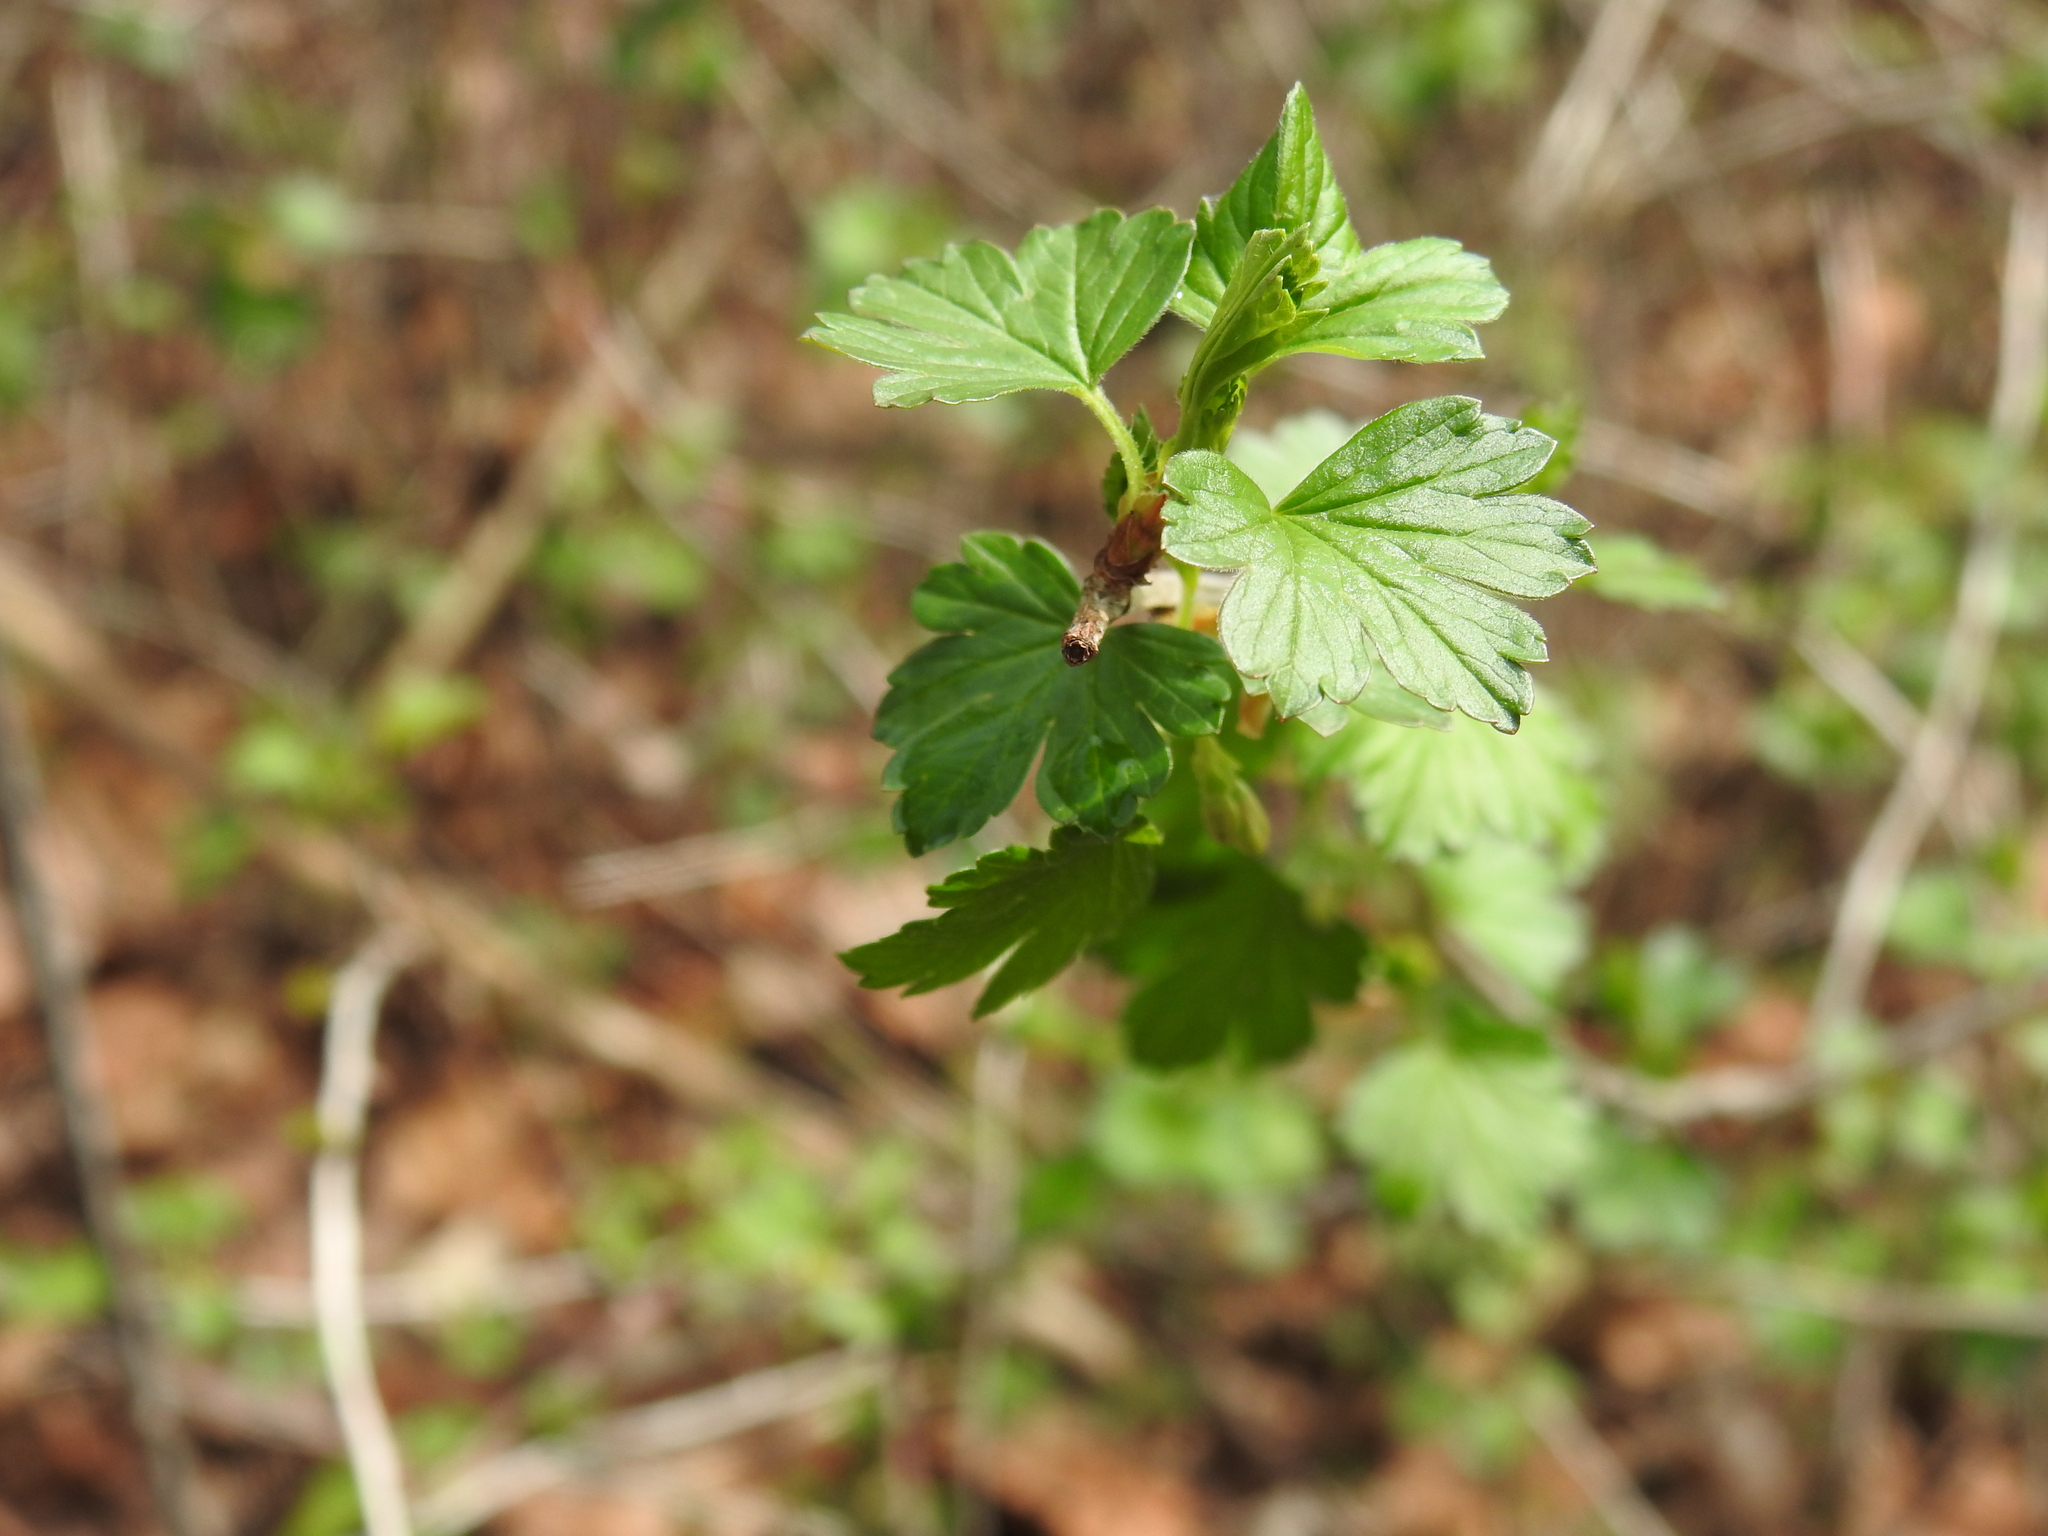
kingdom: Plantae
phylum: Tracheophyta
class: Magnoliopsida
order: Saxifragales
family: Grossulariaceae
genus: Ribes
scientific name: Ribes cynosbati
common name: American gooseberry
